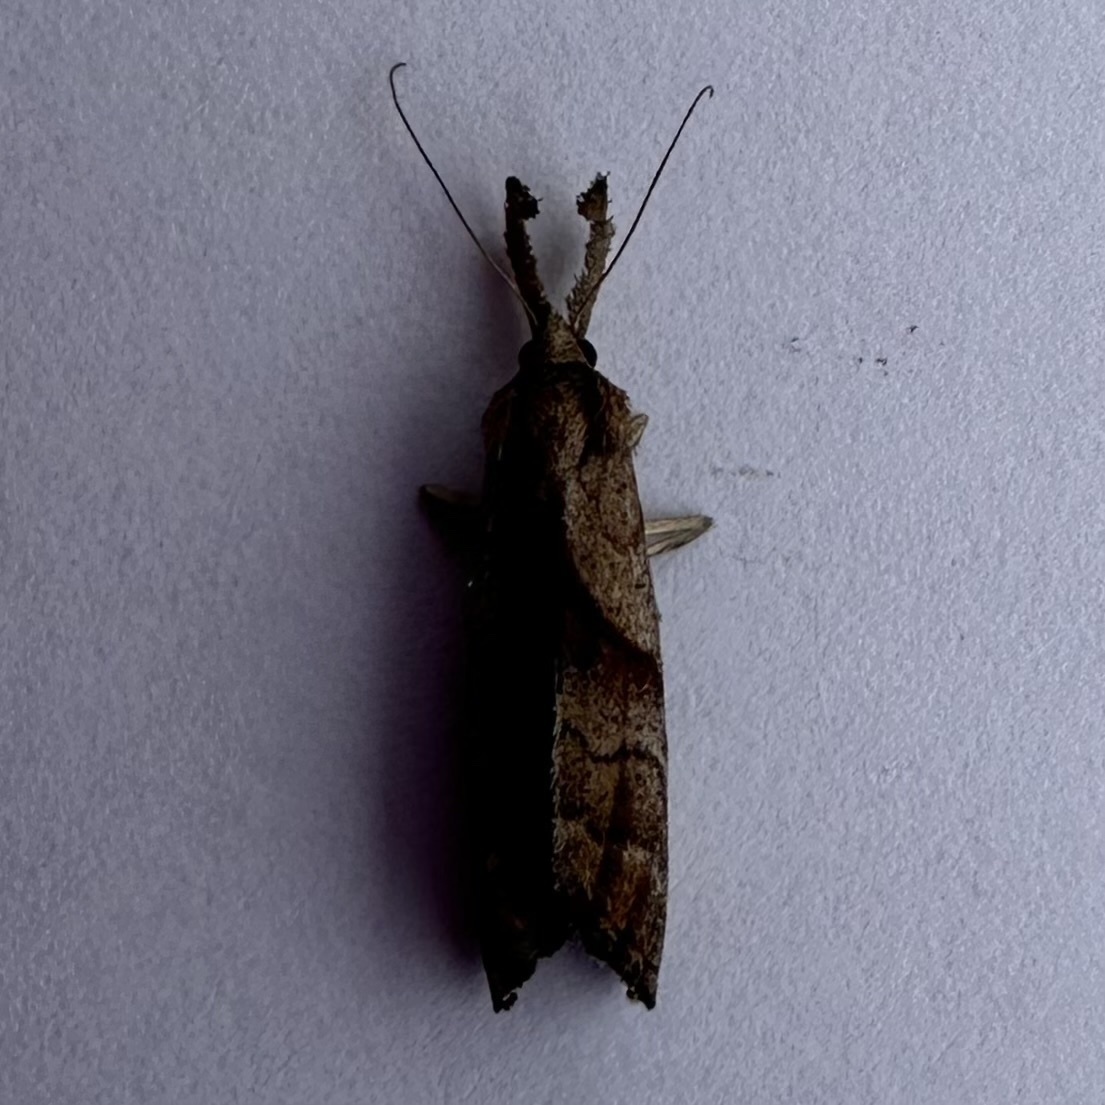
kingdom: Animalia
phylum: Arthropoda
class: Insecta
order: Lepidoptera
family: Erebidae
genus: Palthis
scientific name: Palthis angulalis
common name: Dark-spotted palthis moth
